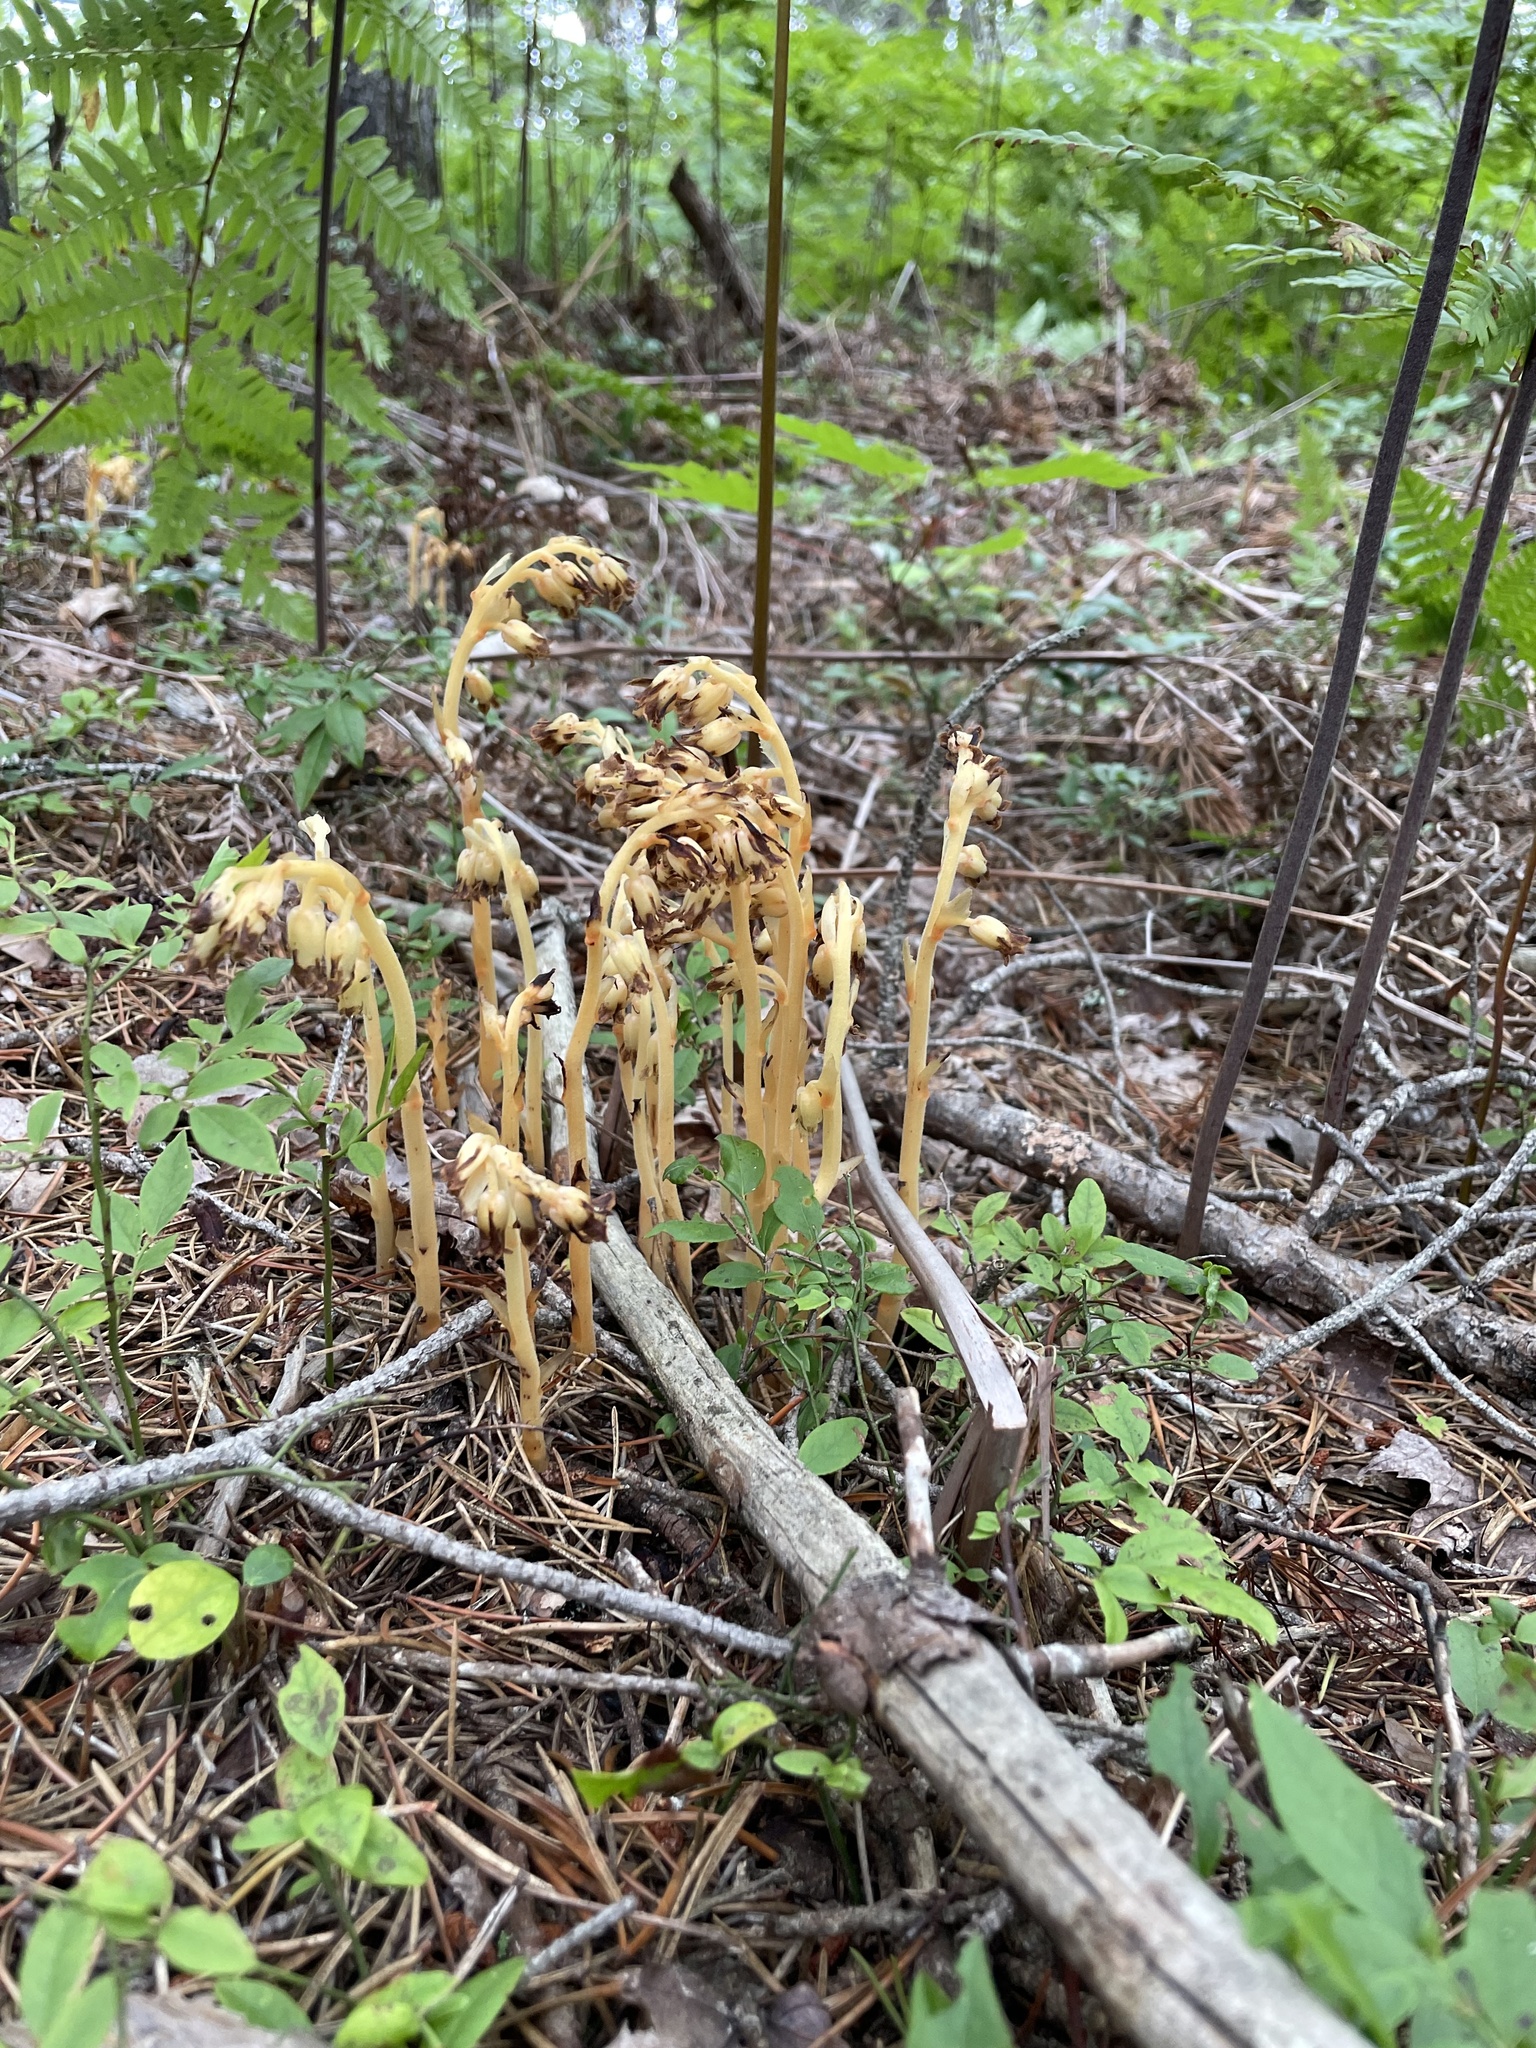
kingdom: Plantae
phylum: Tracheophyta
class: Magnoliopsida
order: Ericales
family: Ericaceae
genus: Hypopitys
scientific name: Hypopitys monotropa
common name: Yellow bird's-nest
